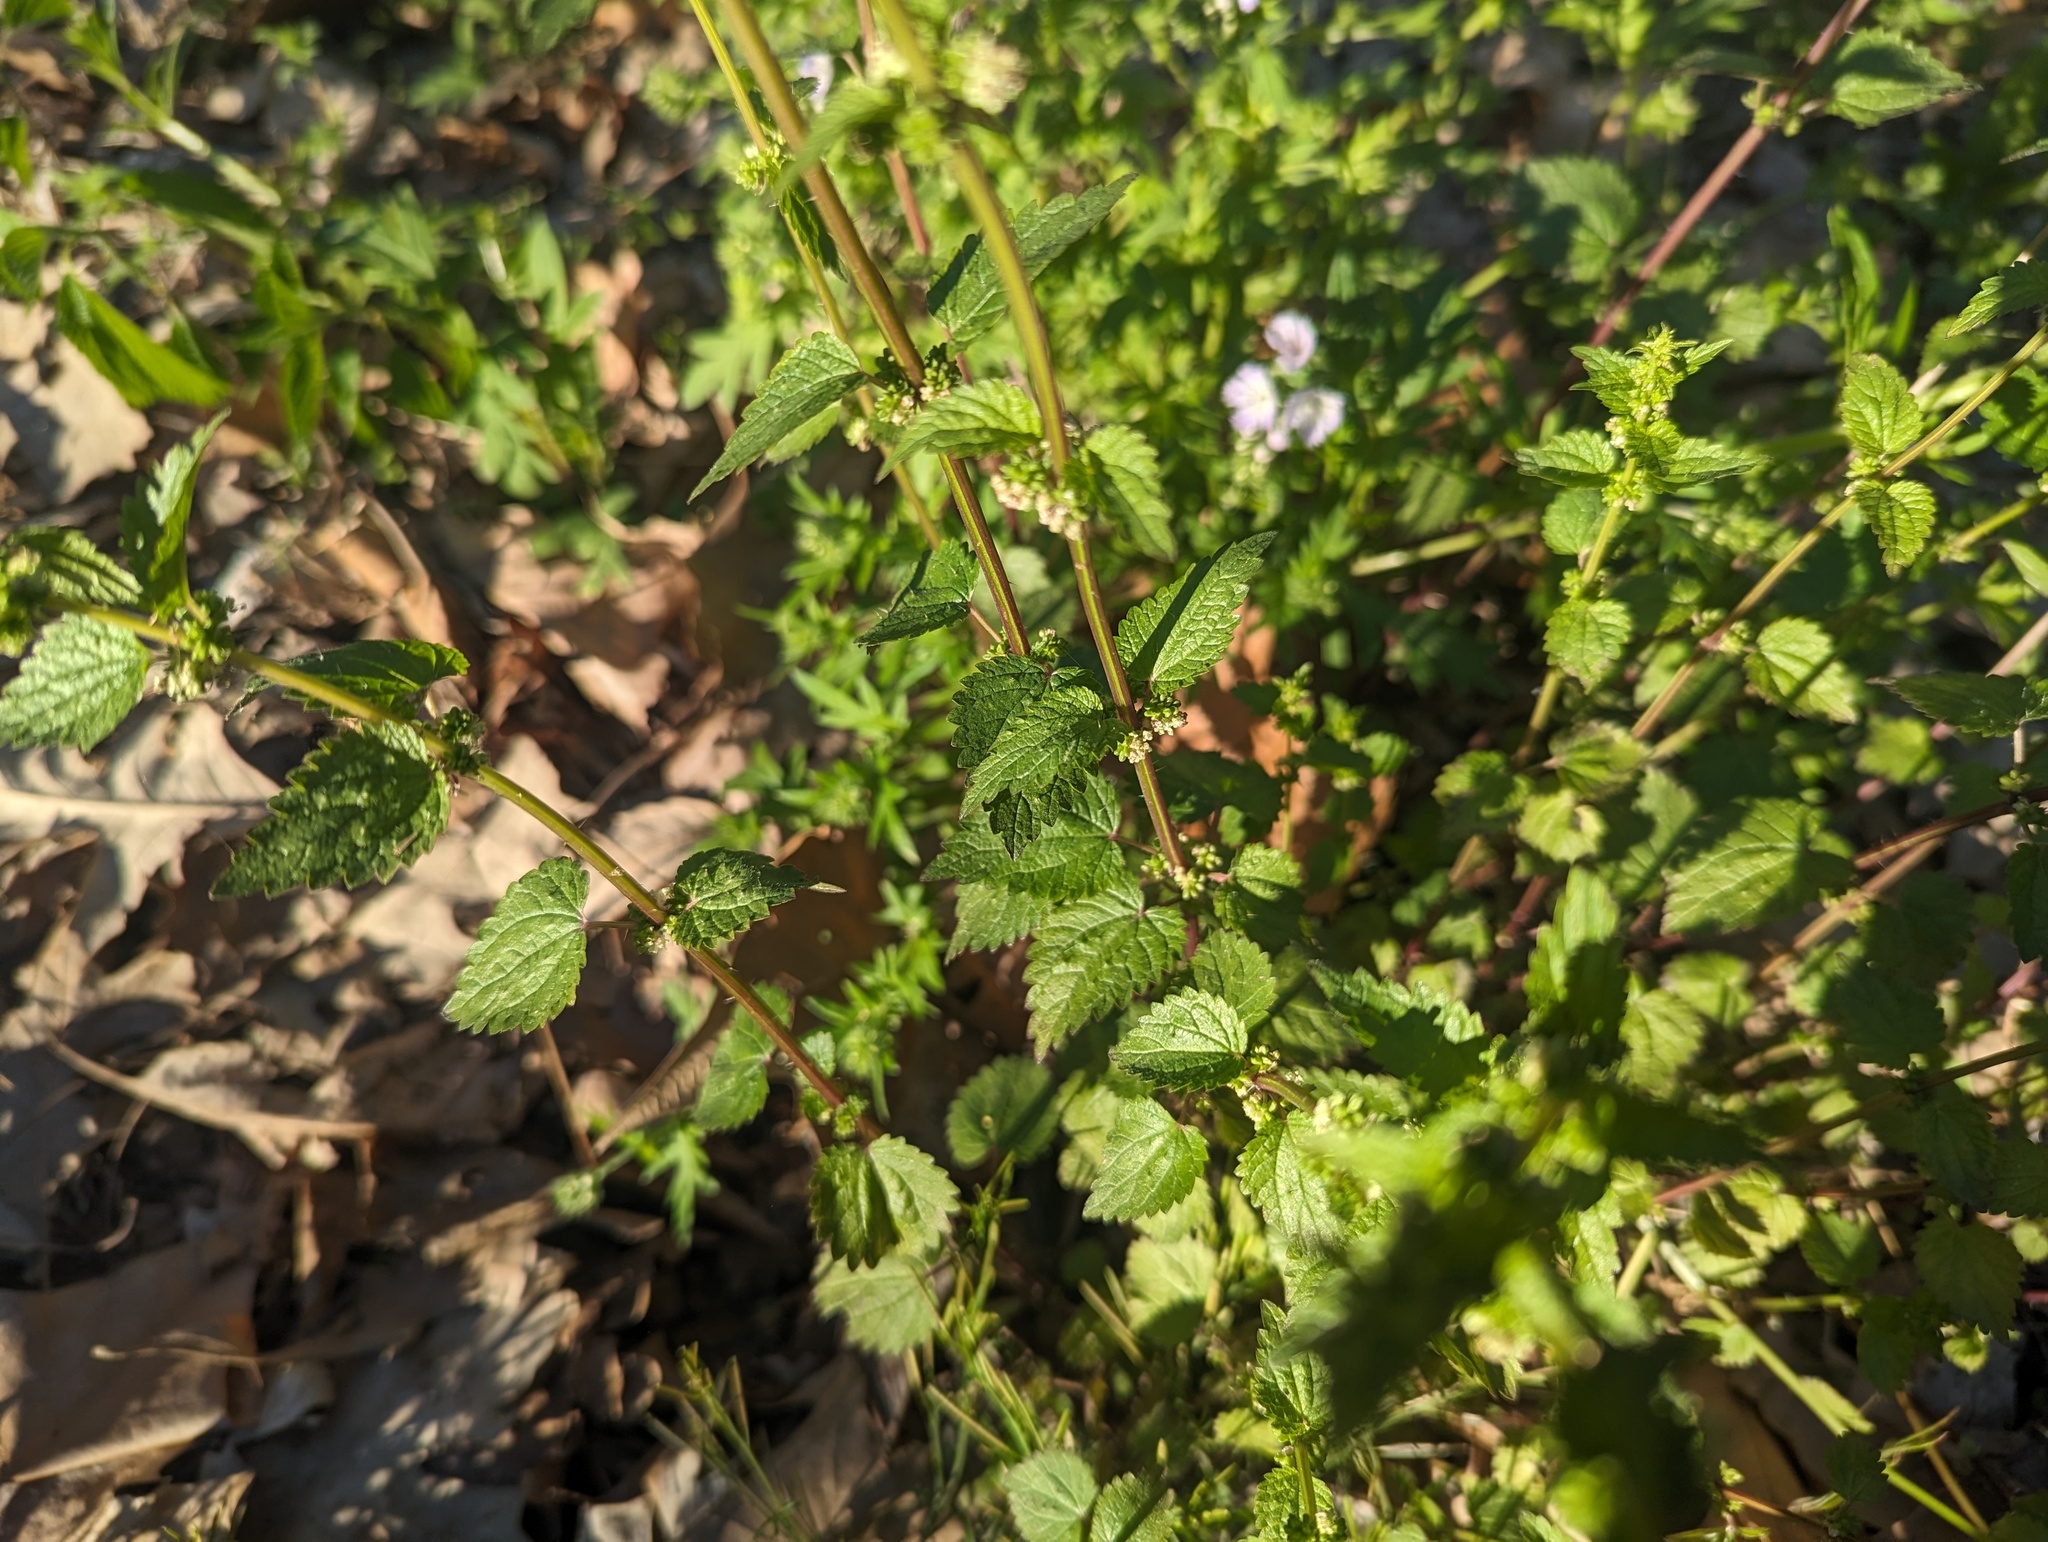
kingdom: Plantae
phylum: Tracheophyta
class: Magnoliopsida
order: Rosales
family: Urticaceae
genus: Urtica
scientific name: Urtica chamaedryoides
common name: Heart-leaf nettle
